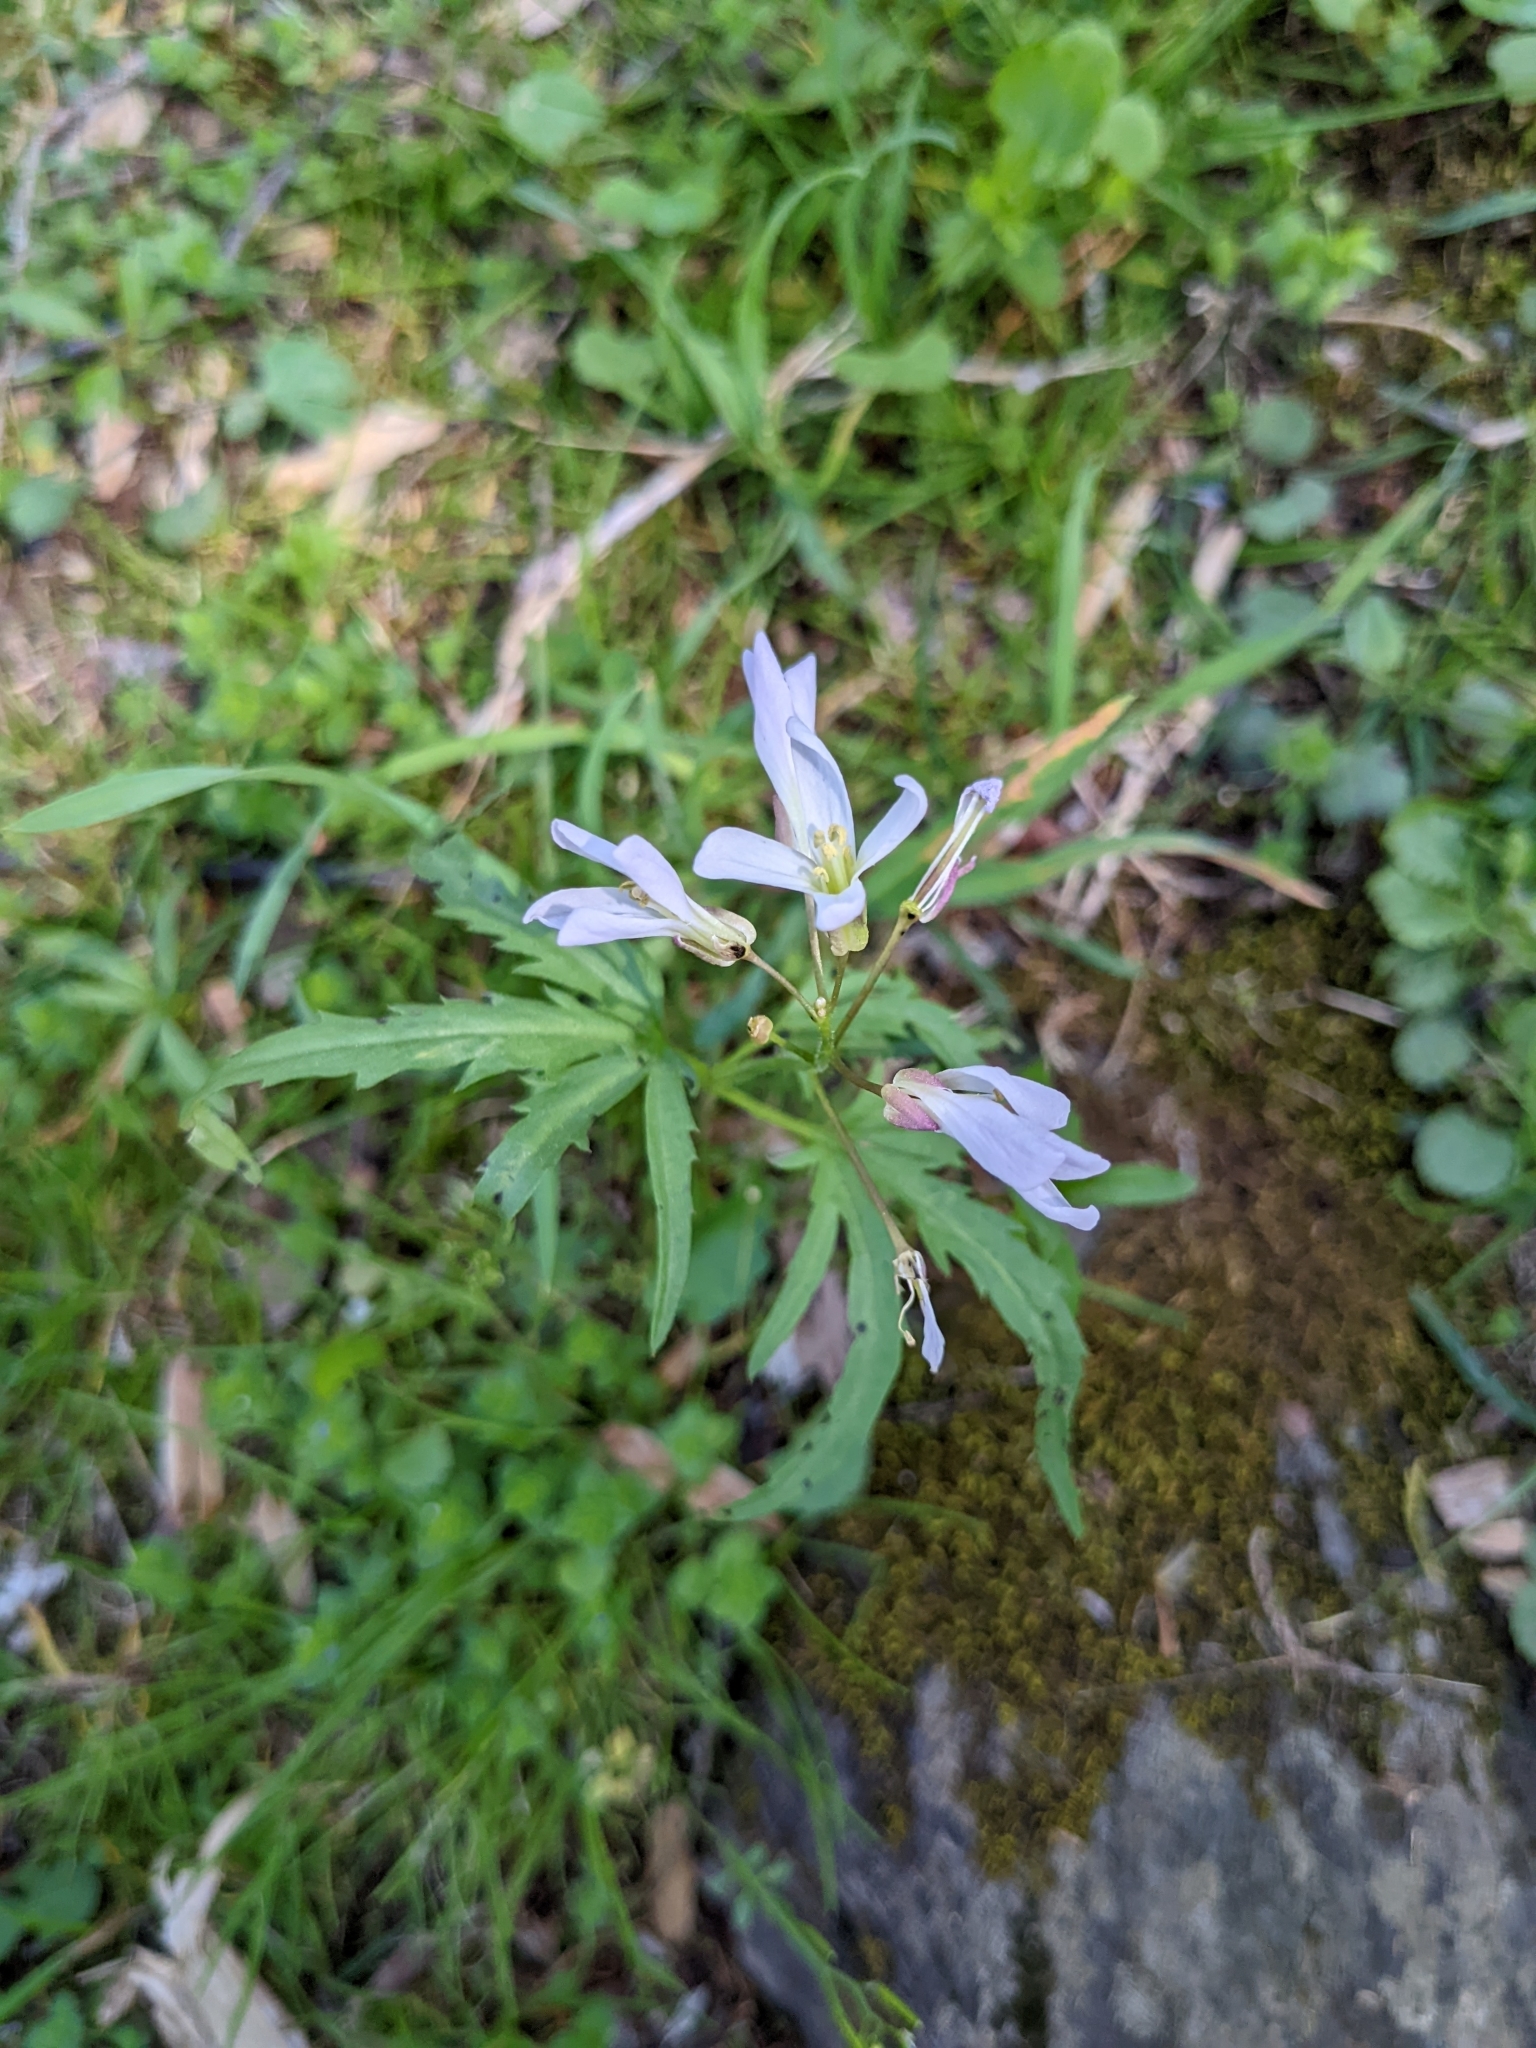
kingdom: Plantae
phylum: Tracheophyta
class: Magnoliopsida
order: Brassicales
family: Brassicaceae
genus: Cardamine
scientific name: Cardamine concatenata
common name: Cut-leaf toothcup
